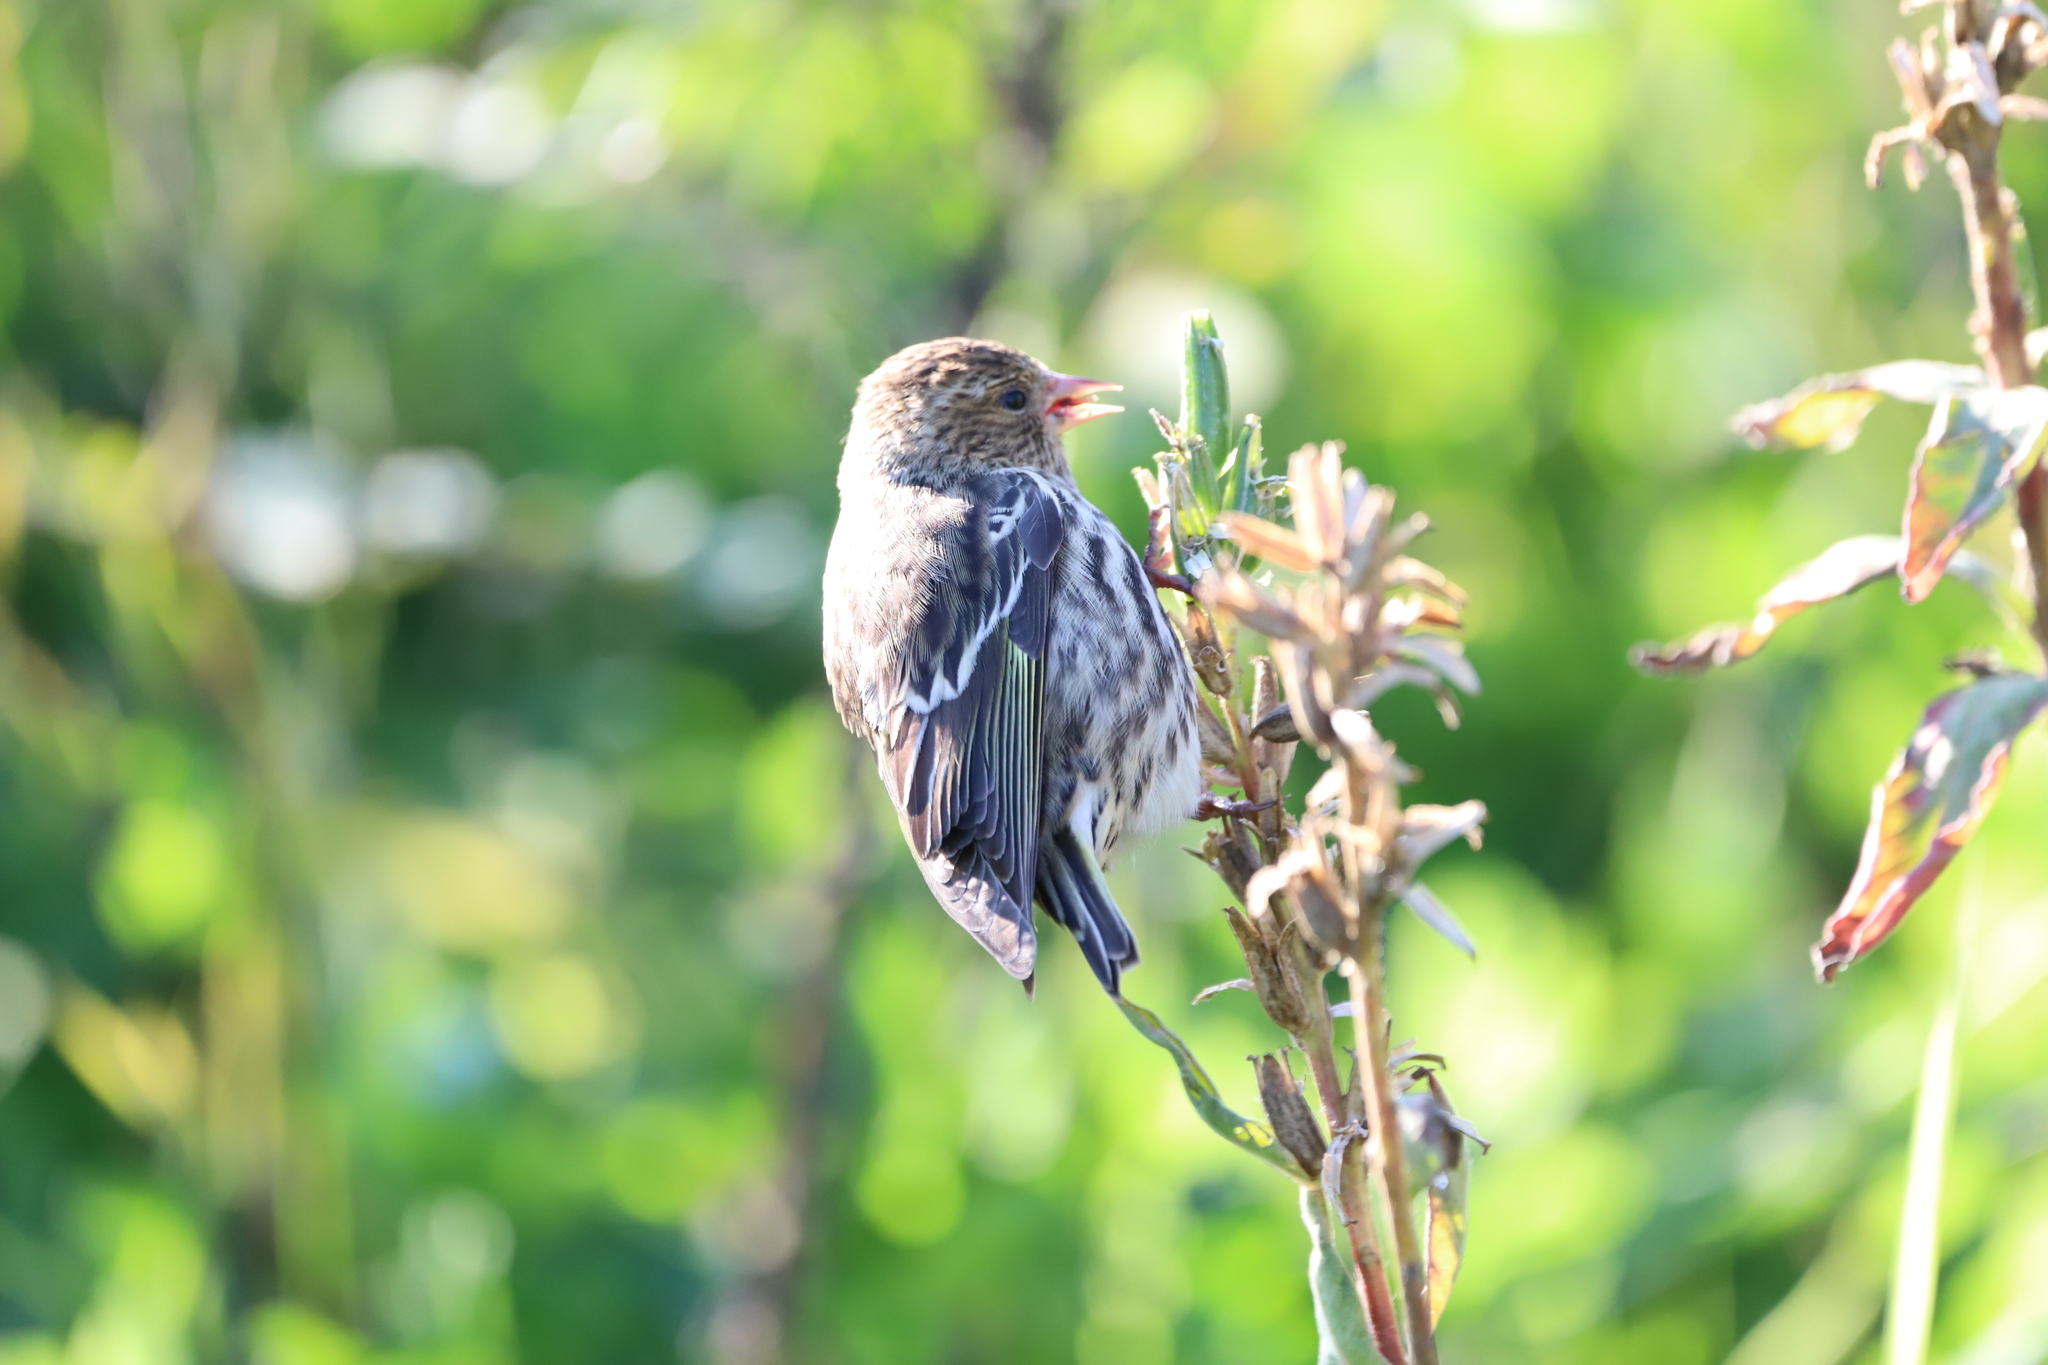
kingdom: Animalia
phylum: Chordata
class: Aves
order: Passeriformes
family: Fringillidae
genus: Spinus
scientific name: Spinus pinus
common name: Pine siskin
